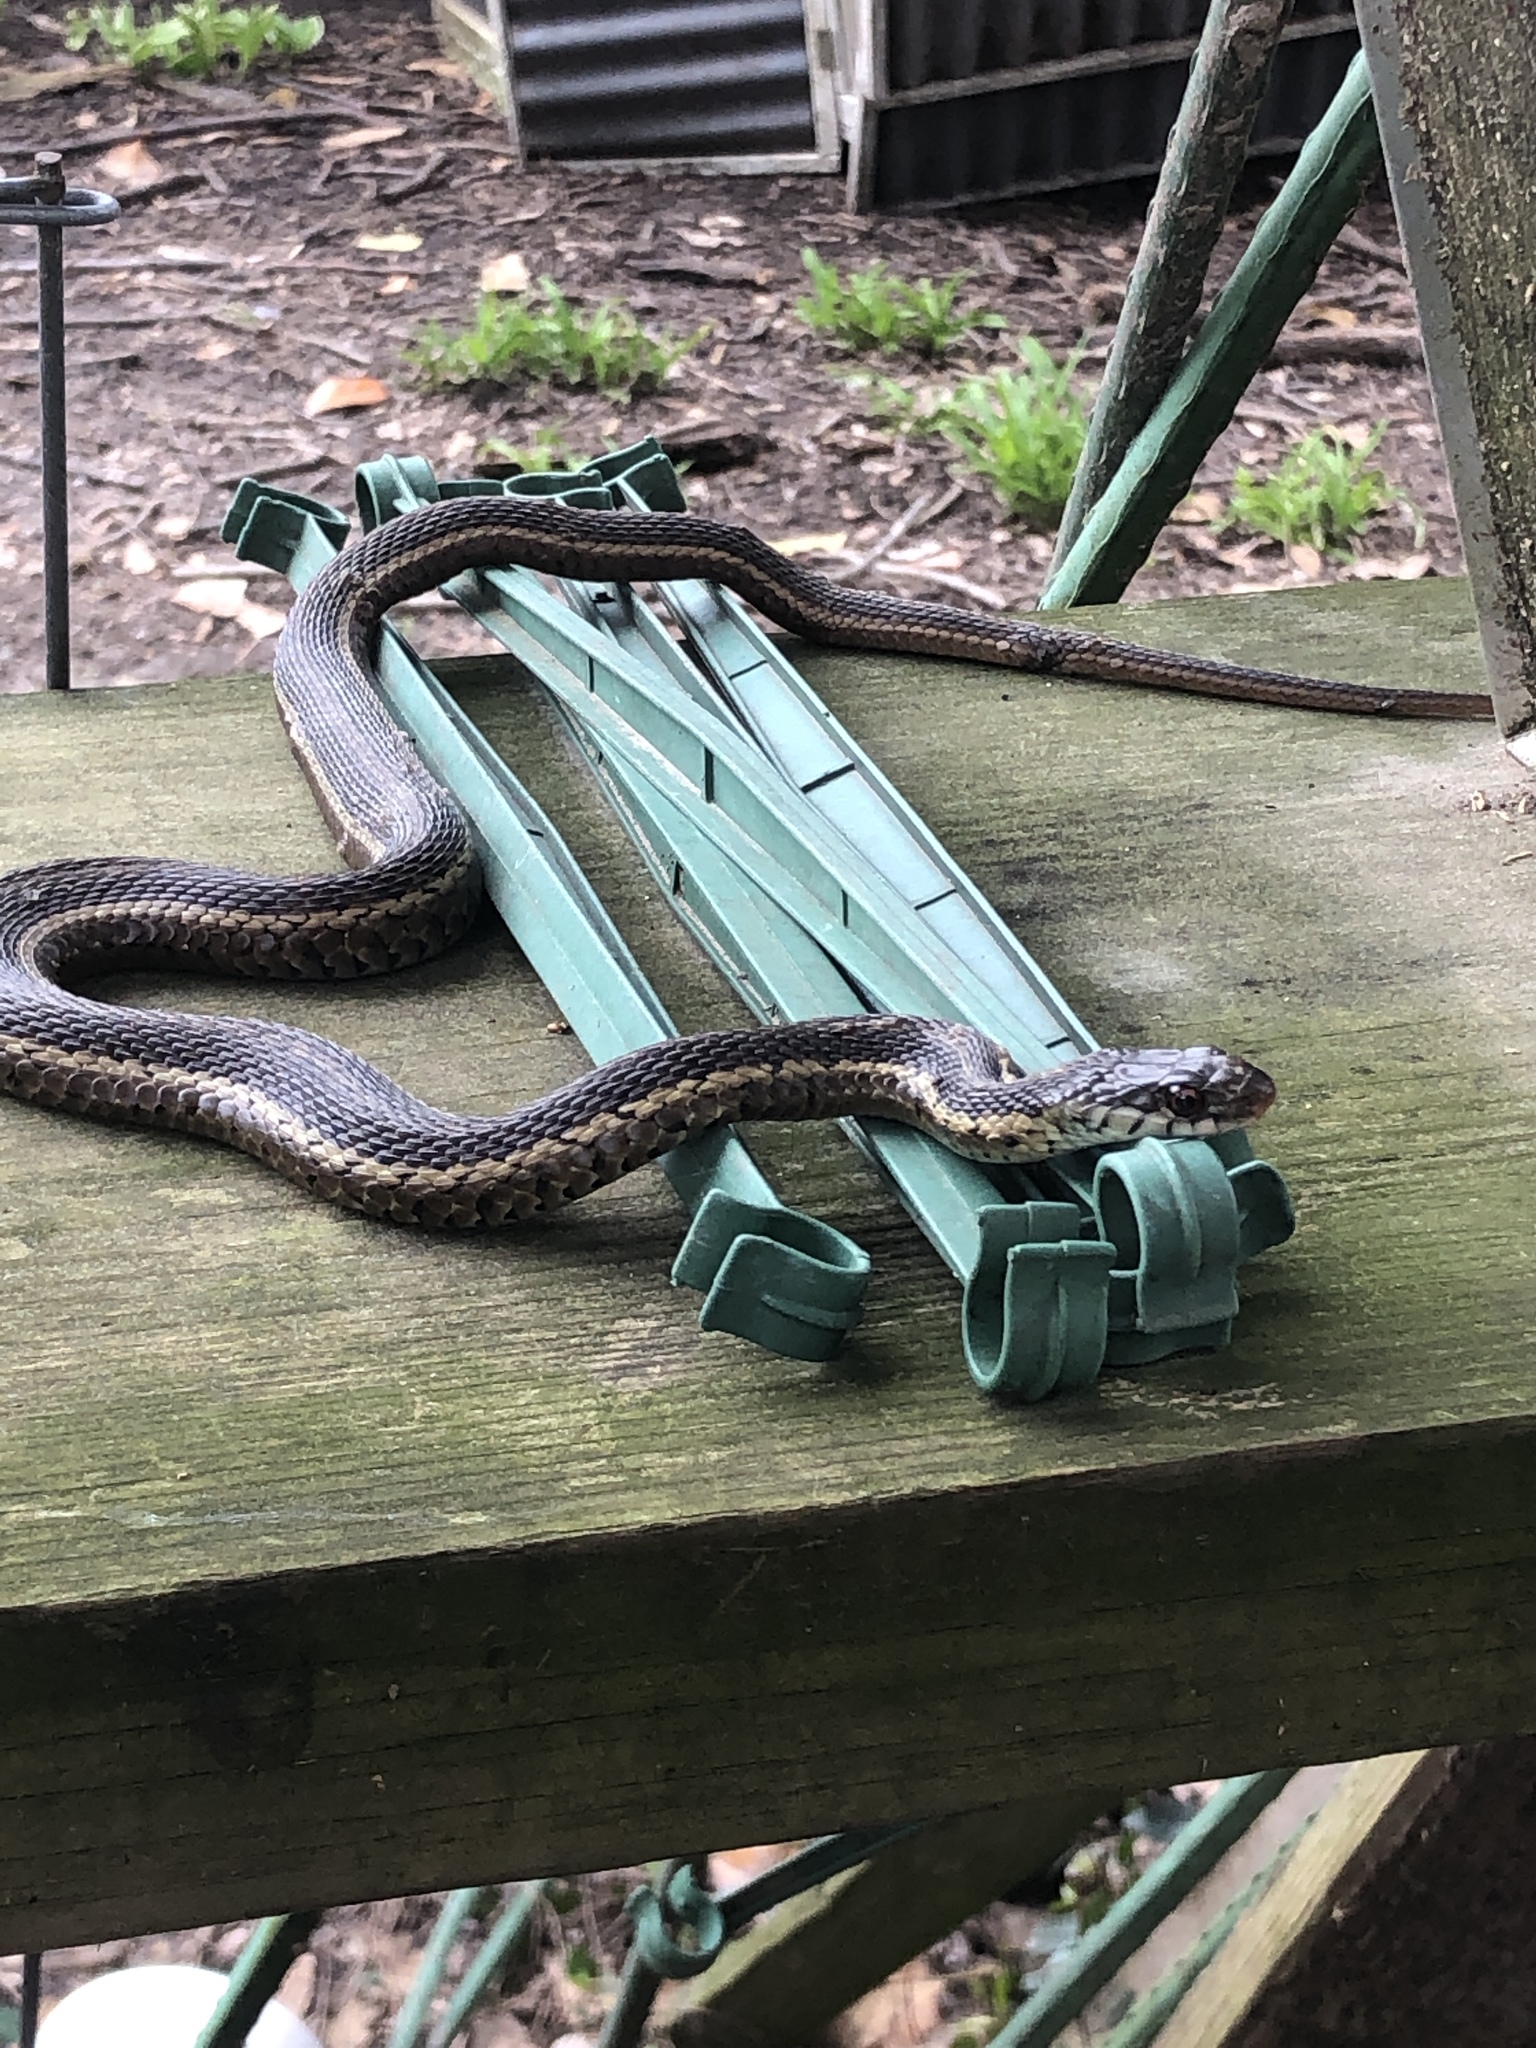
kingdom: Animalia
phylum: Chordata
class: Squamata
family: Colubridae
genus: Thamnophis
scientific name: Thamnophis sirtalis
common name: Common garter snake
